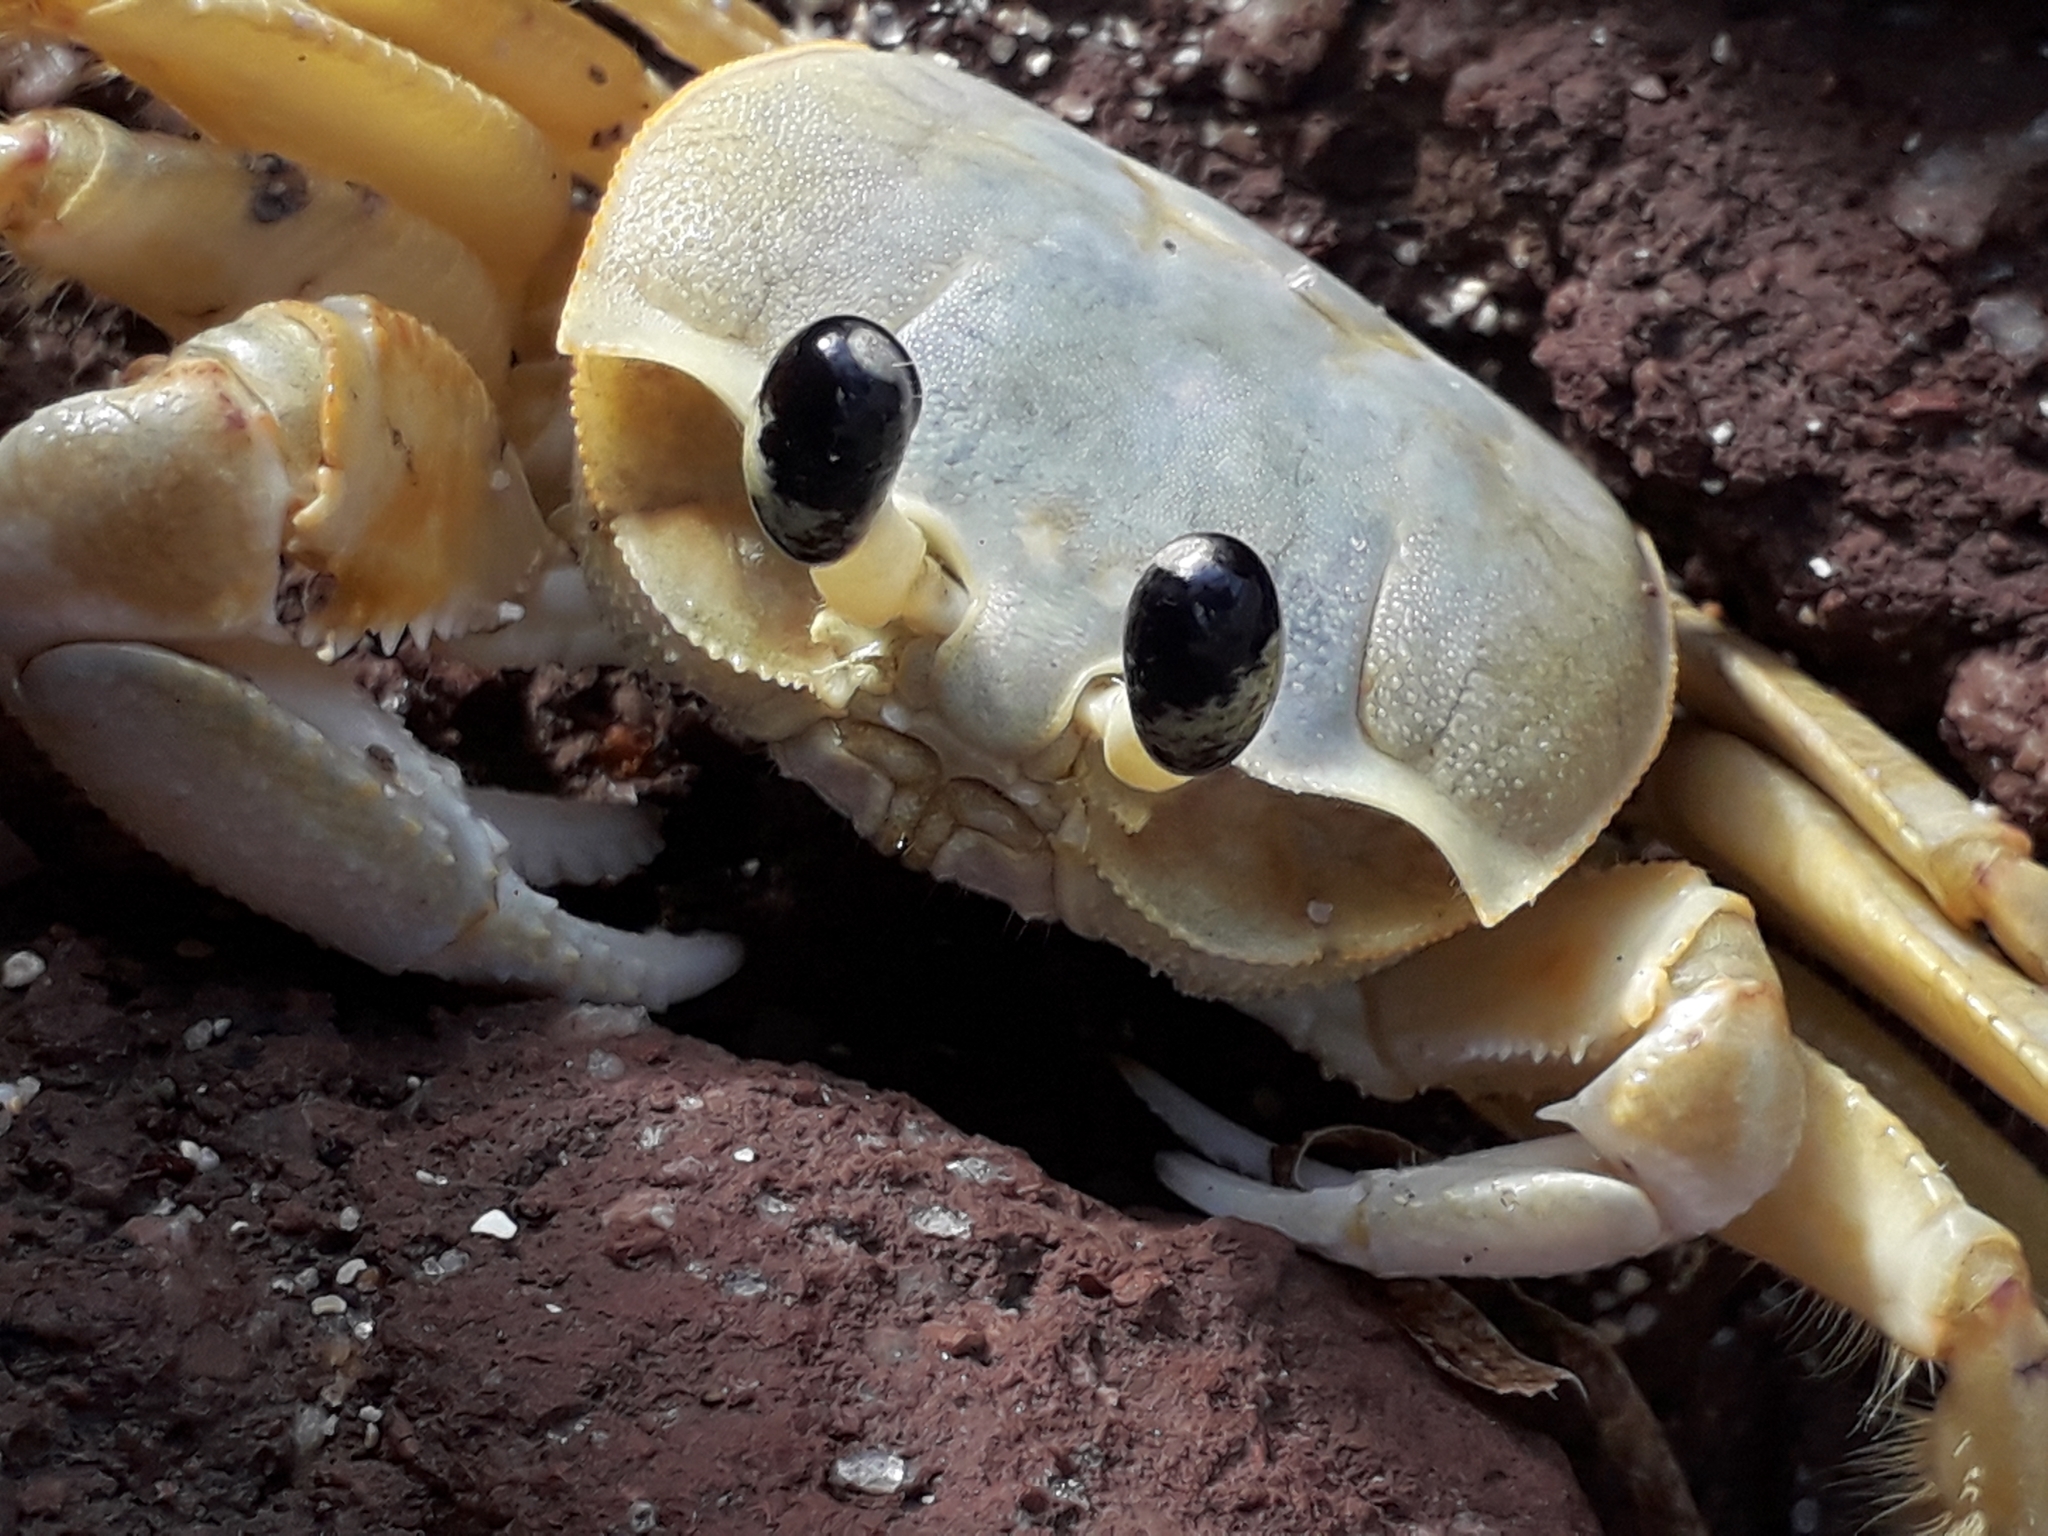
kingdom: Animalia
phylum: Arthropoda
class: Malacostraca
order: Decapoda
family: Ocypodidae
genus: Ocypode
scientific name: Ocypode quadrata
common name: Ghost crab
